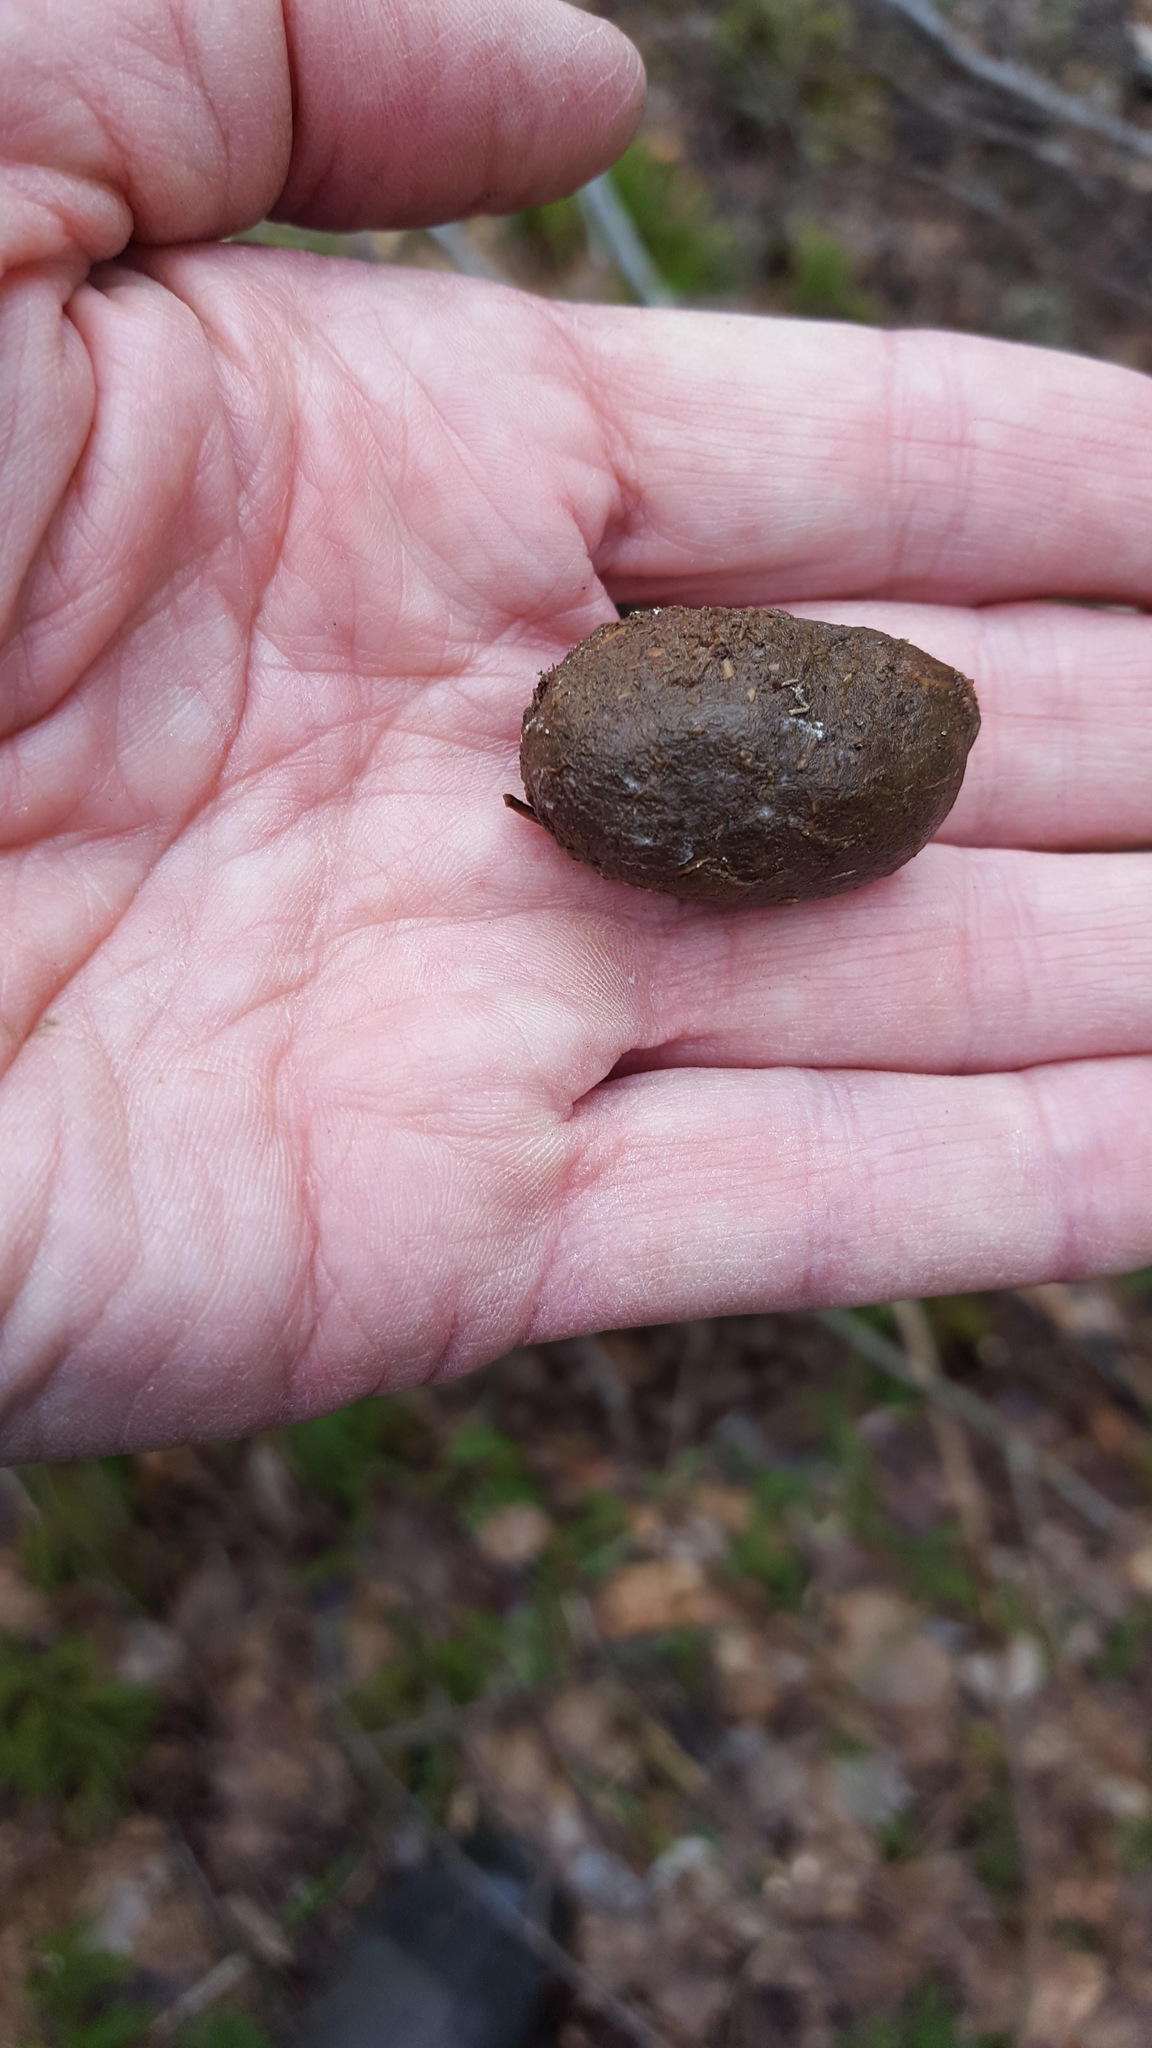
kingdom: Animalia
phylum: Chordata
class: Mammalia
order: Artiodactyla
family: Cervidae
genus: Alces
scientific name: Alces alces
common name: Moose
